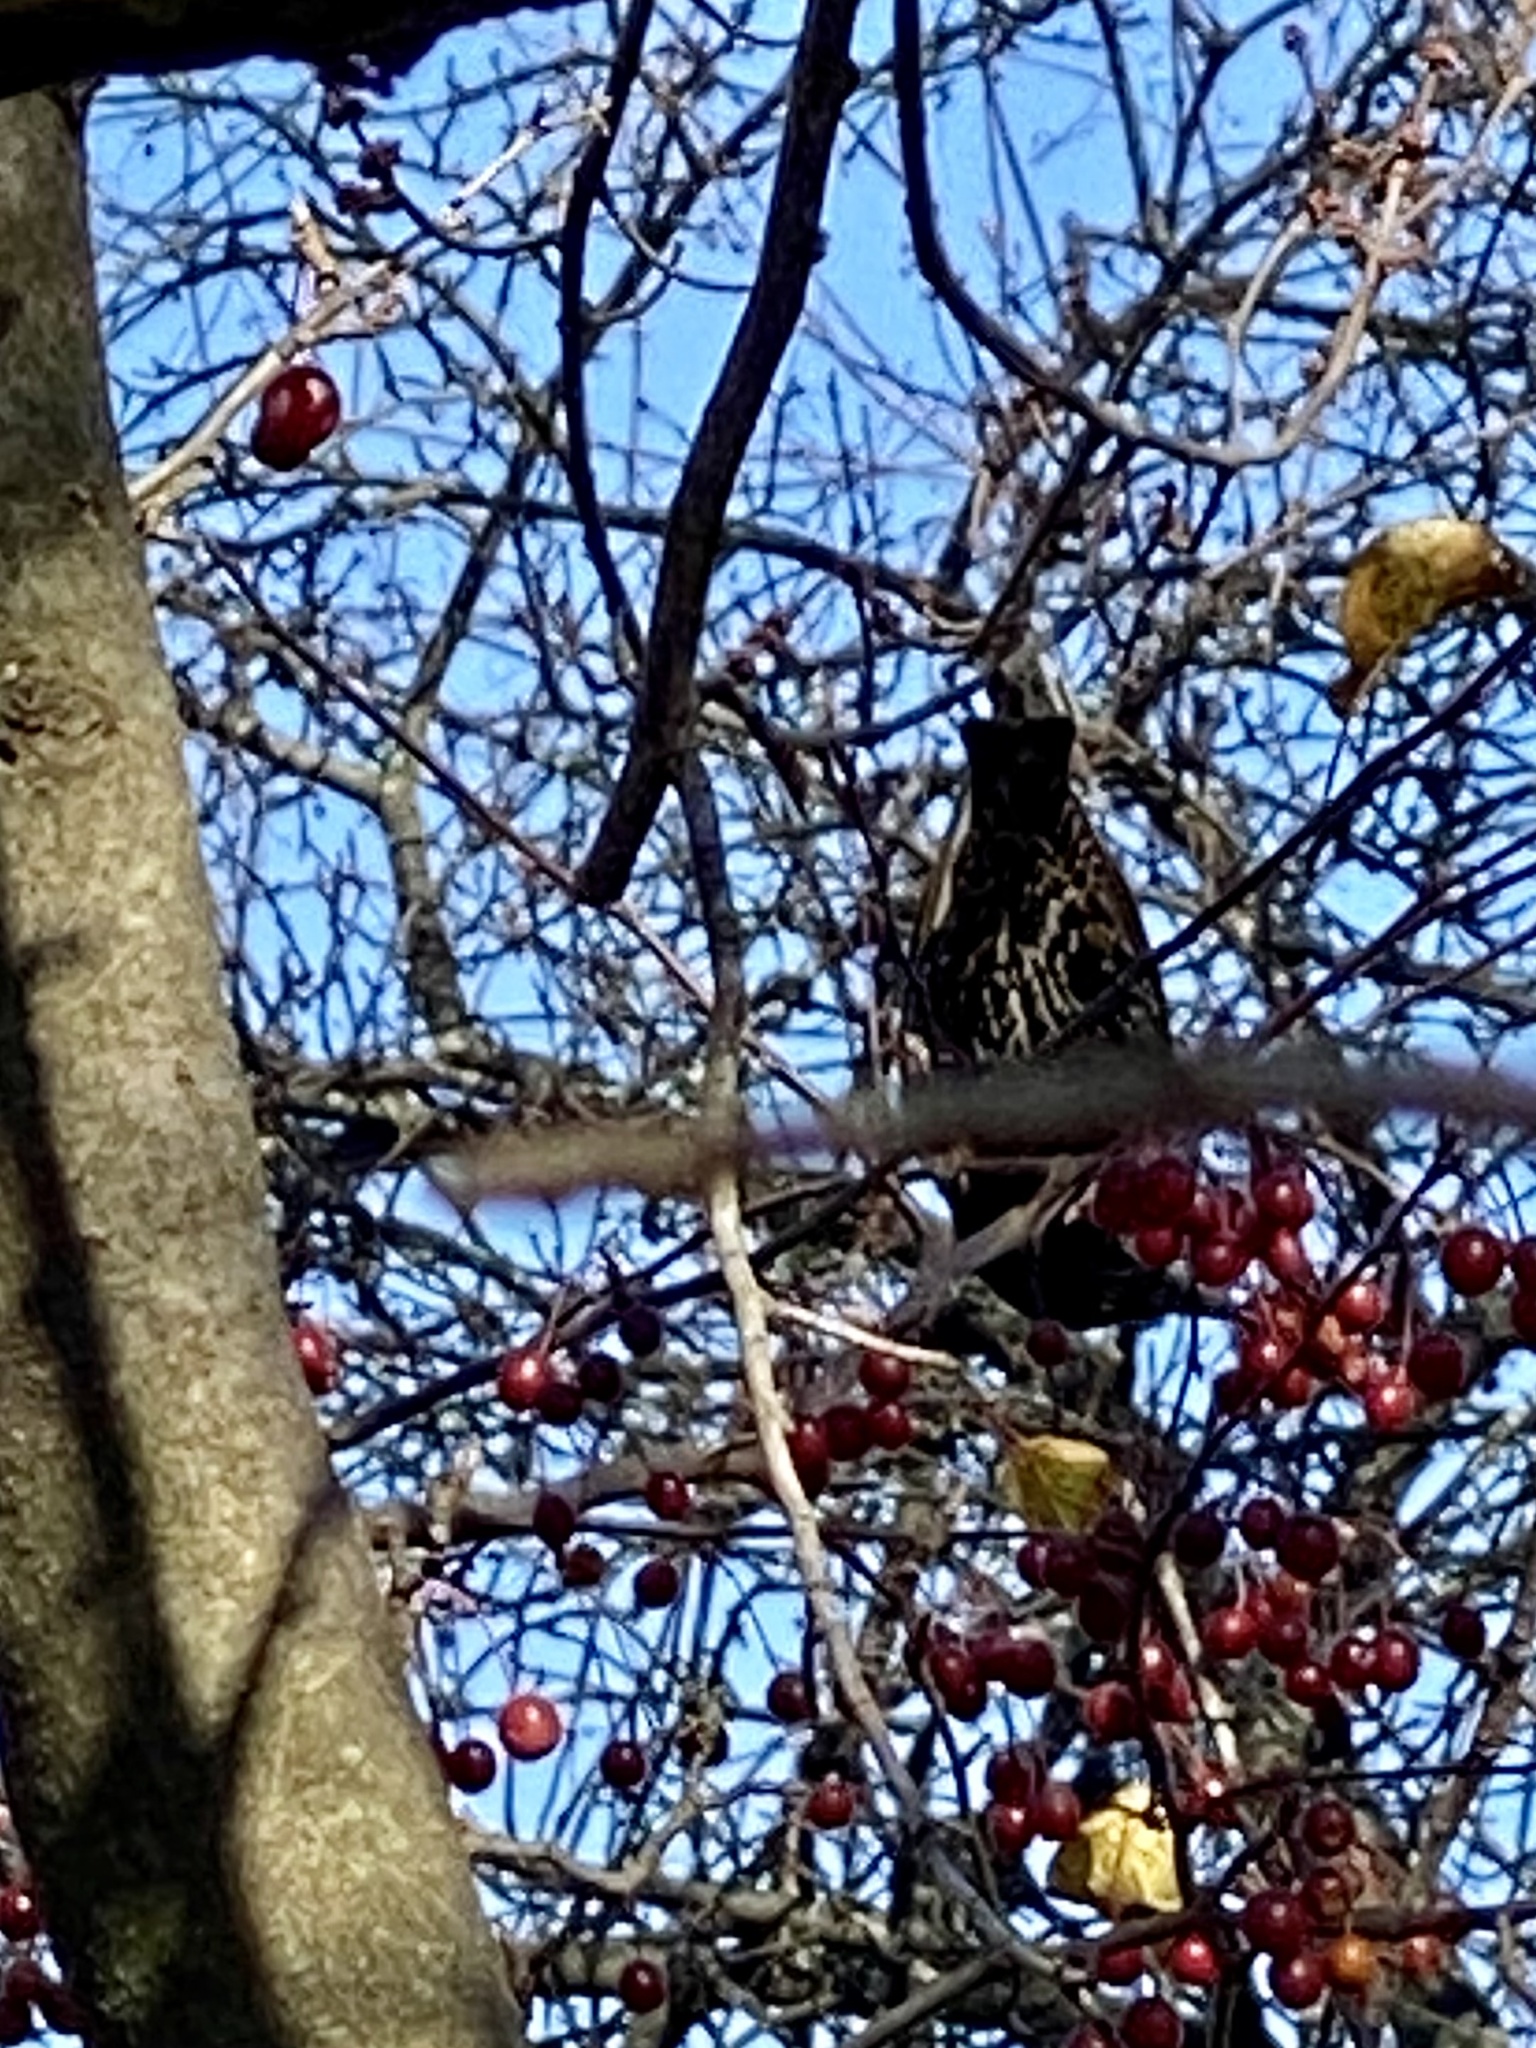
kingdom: Animalia
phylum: Chordata
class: Aves
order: Passeriformes
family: Sturnidae
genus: Sturnus
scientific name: Sturnus vulgaris
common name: Common starling
